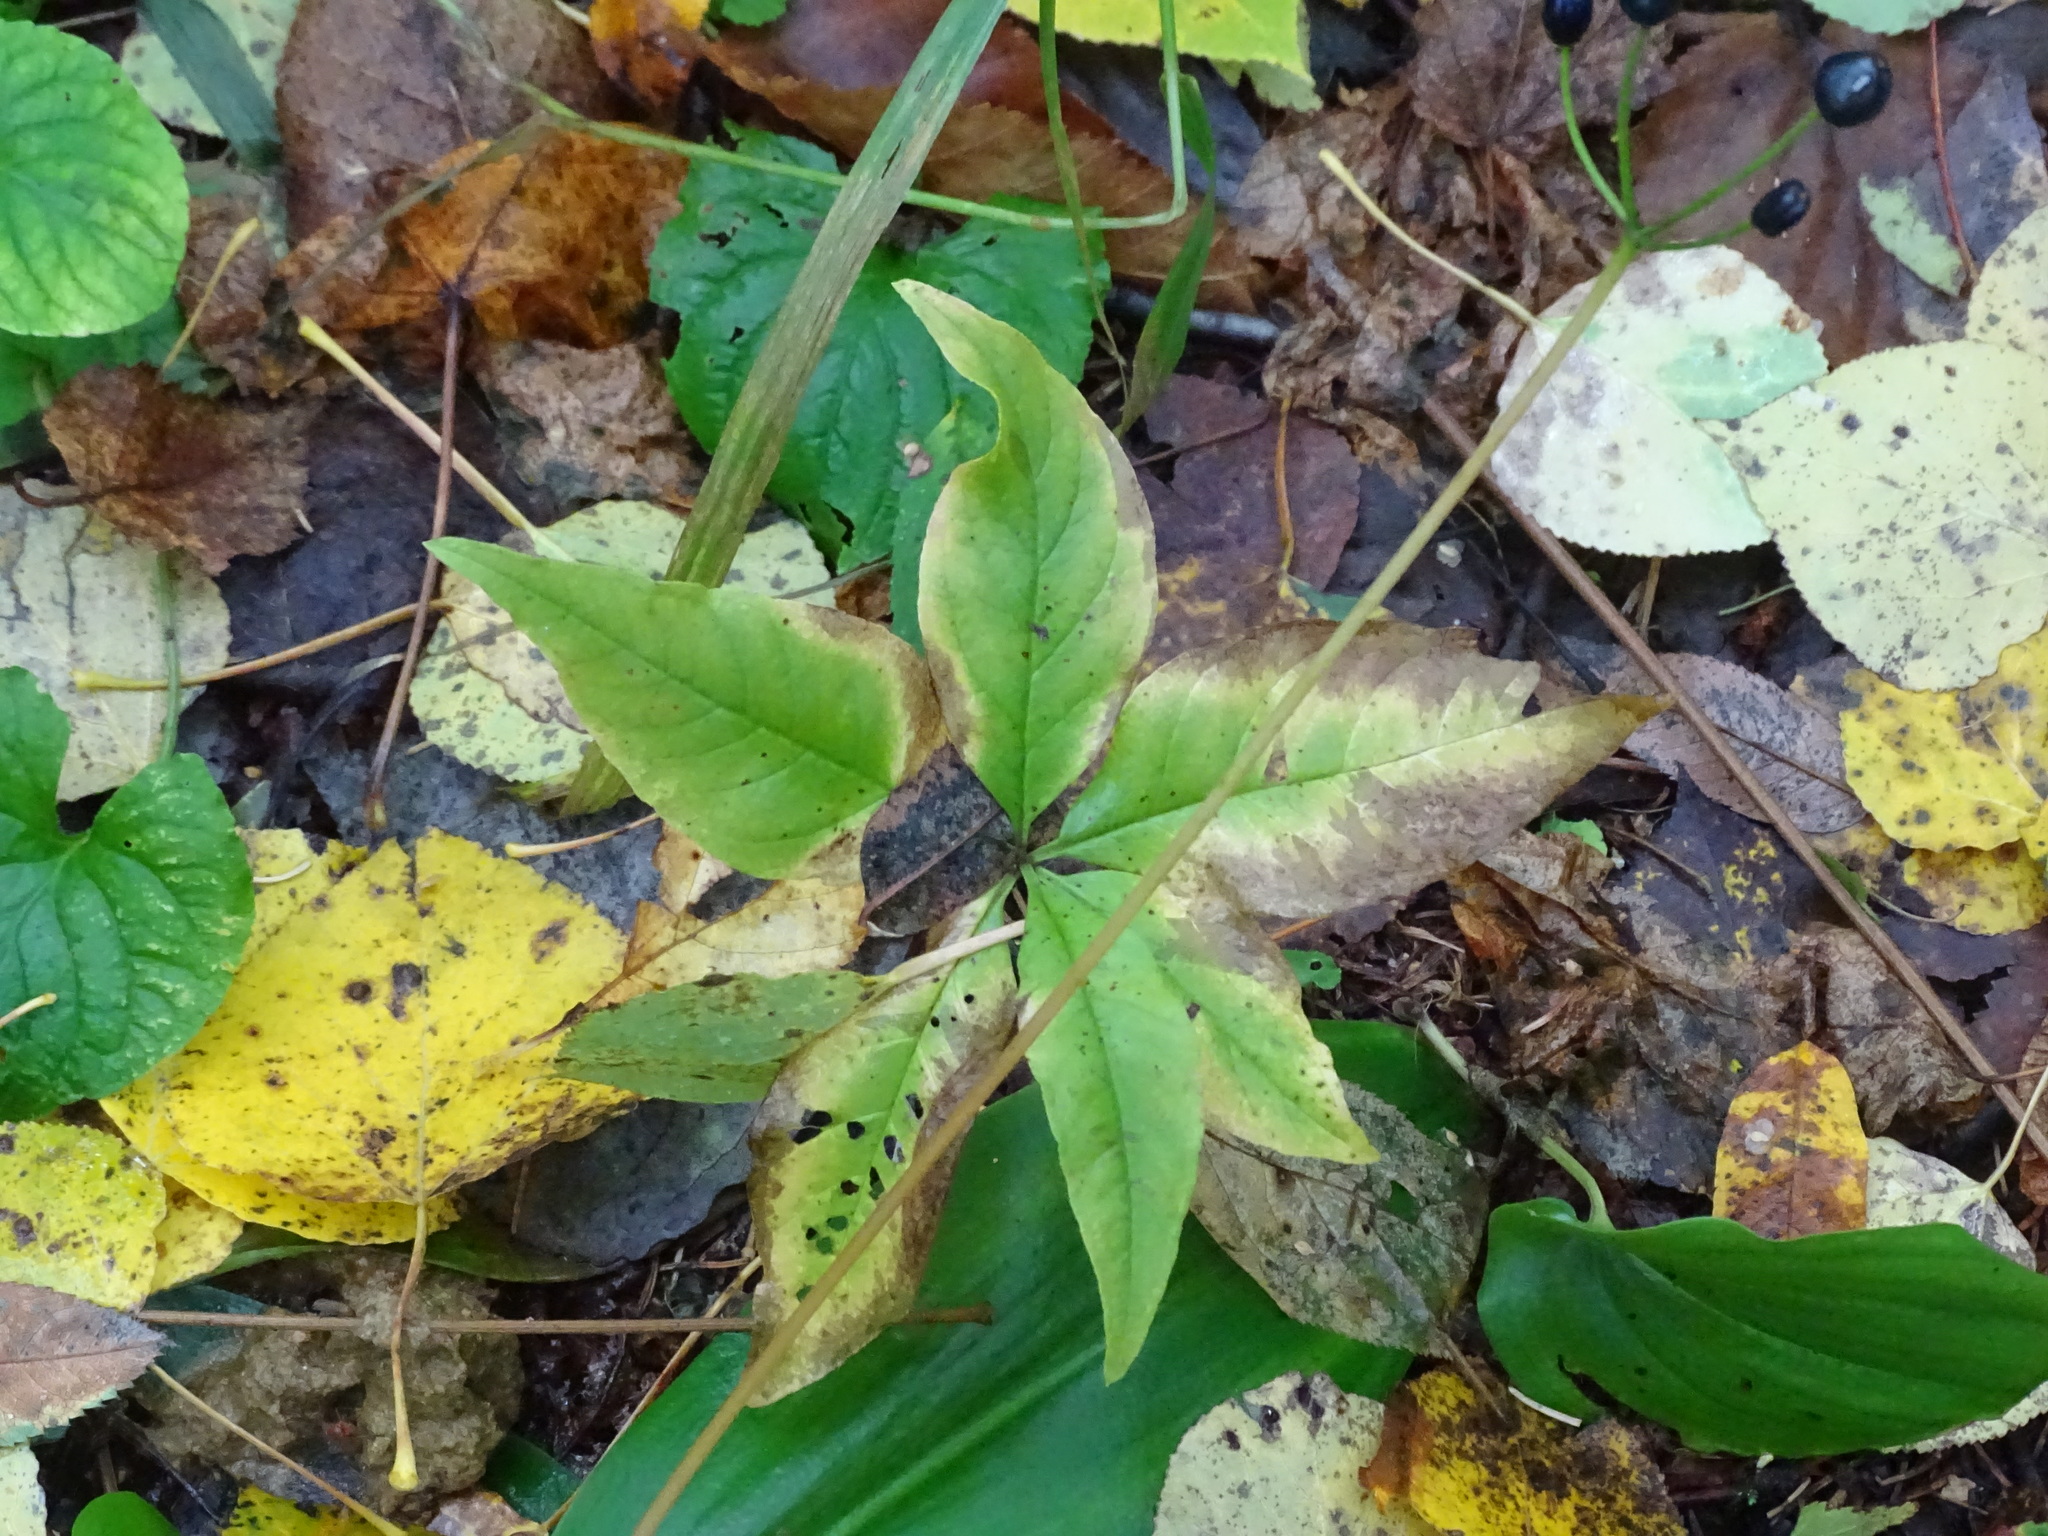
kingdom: Plantae
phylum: Tracheophyta
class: Magnoliopsida
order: Ericales
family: Primulaceae
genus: Lysimachia
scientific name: Lysimachia borealis
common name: American starflower
